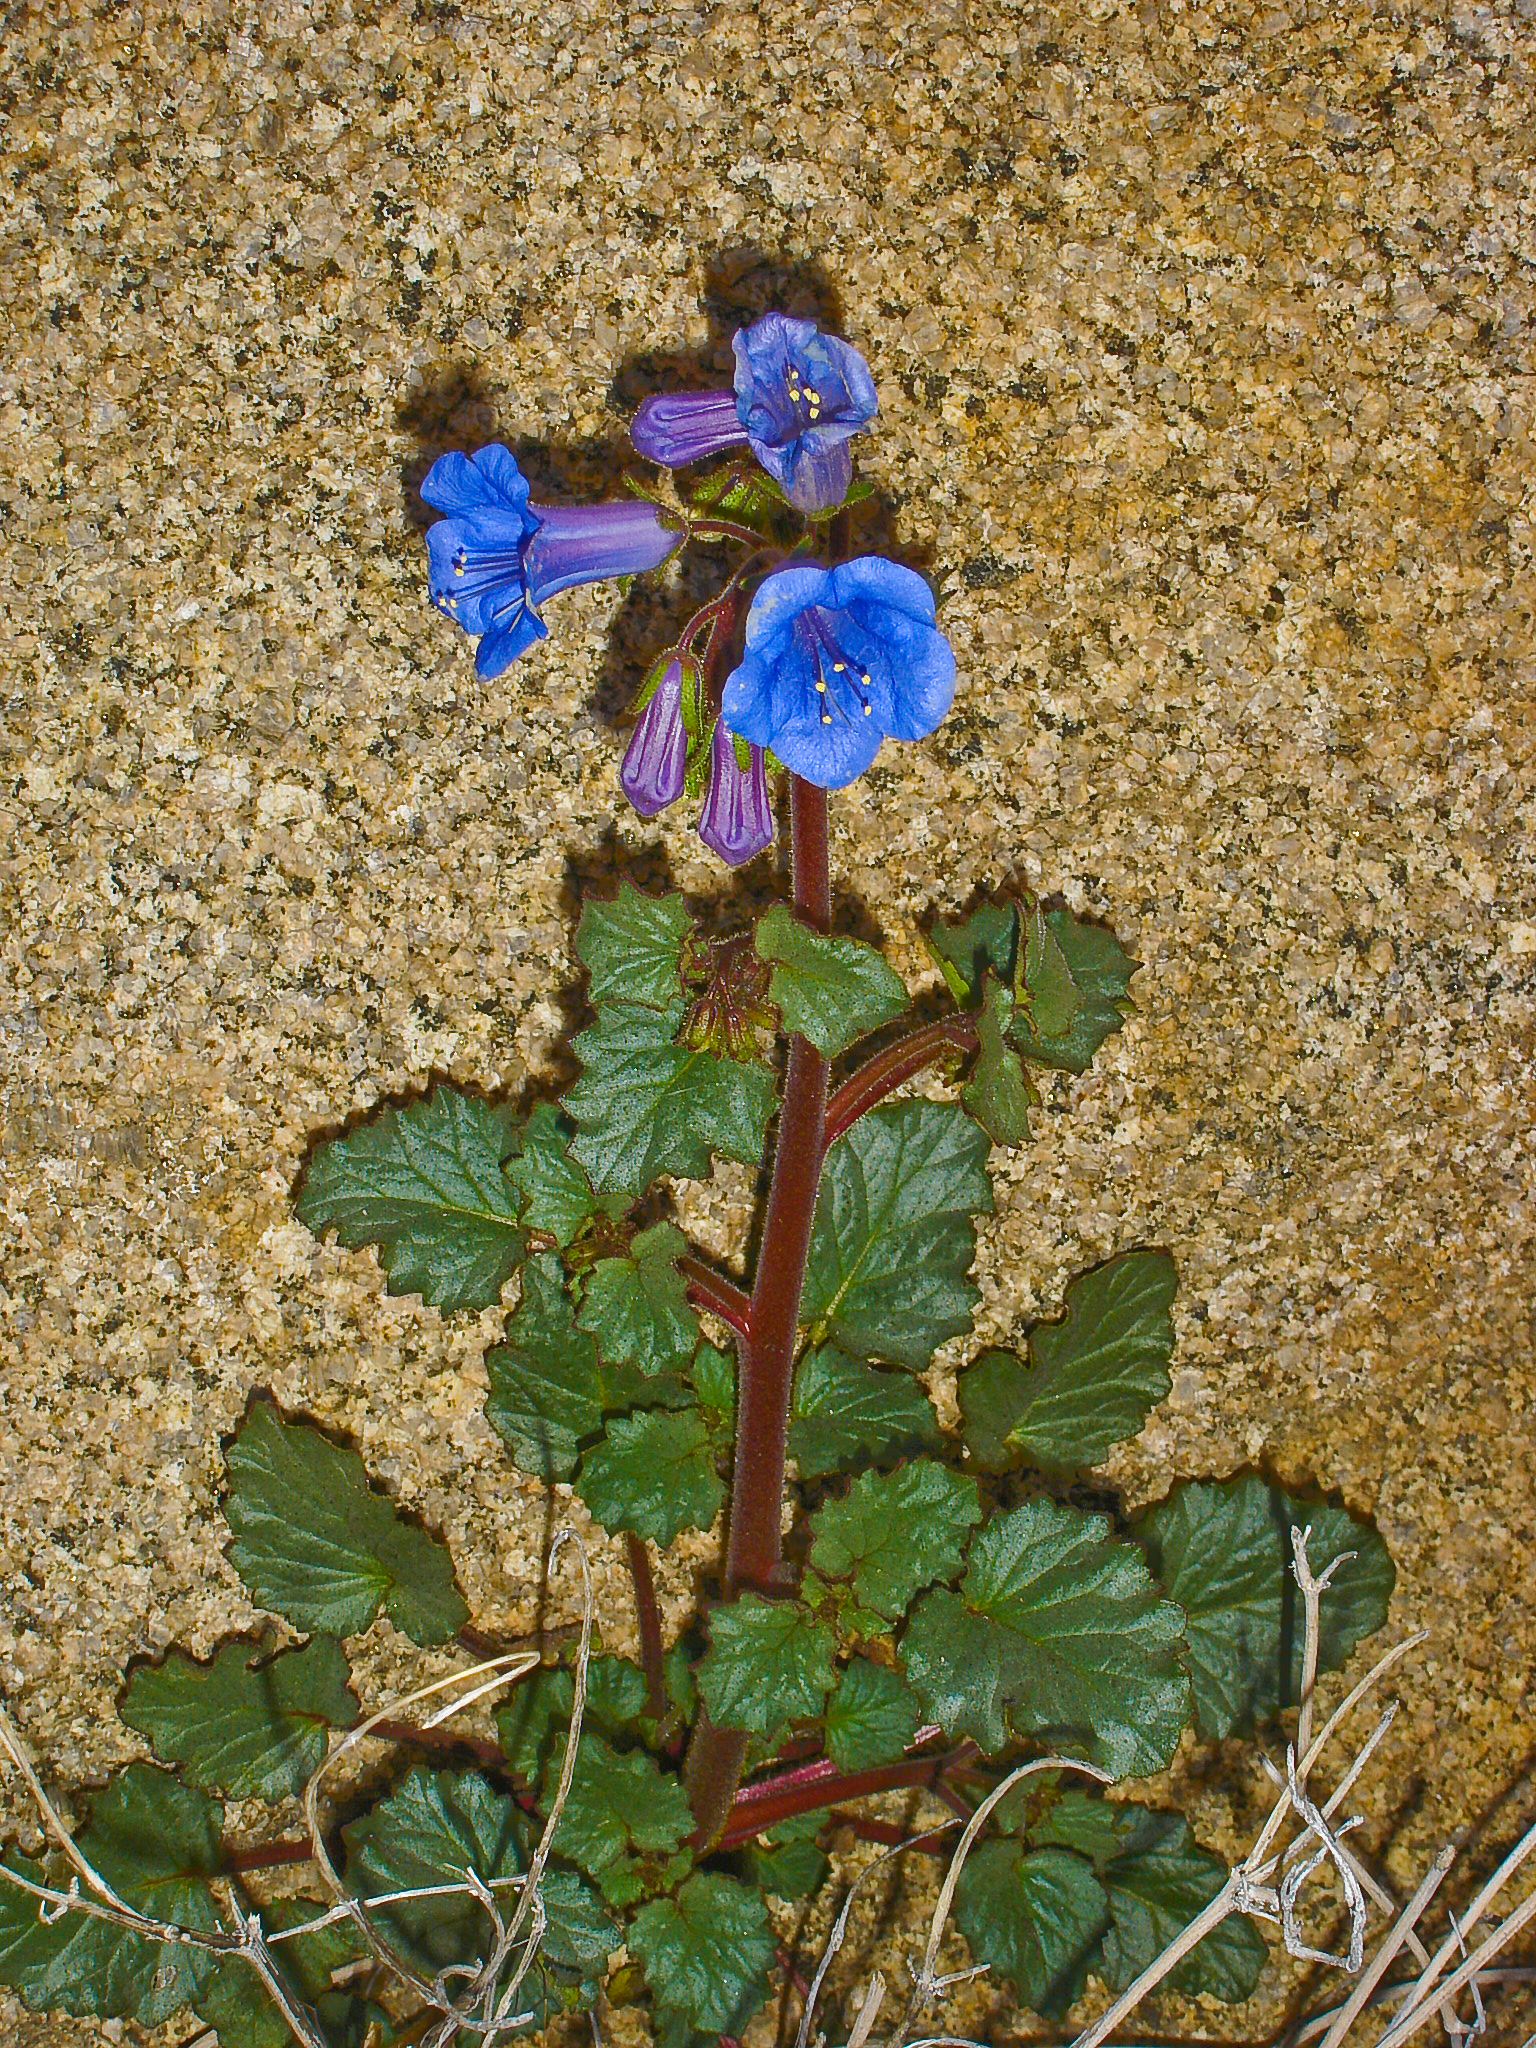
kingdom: Plantae
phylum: Tracheophyta
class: Magnoliopsida
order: Boraginales
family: Hydrophyllaceae
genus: Phacelia
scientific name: Phacelia campanularia
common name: California bluebell
